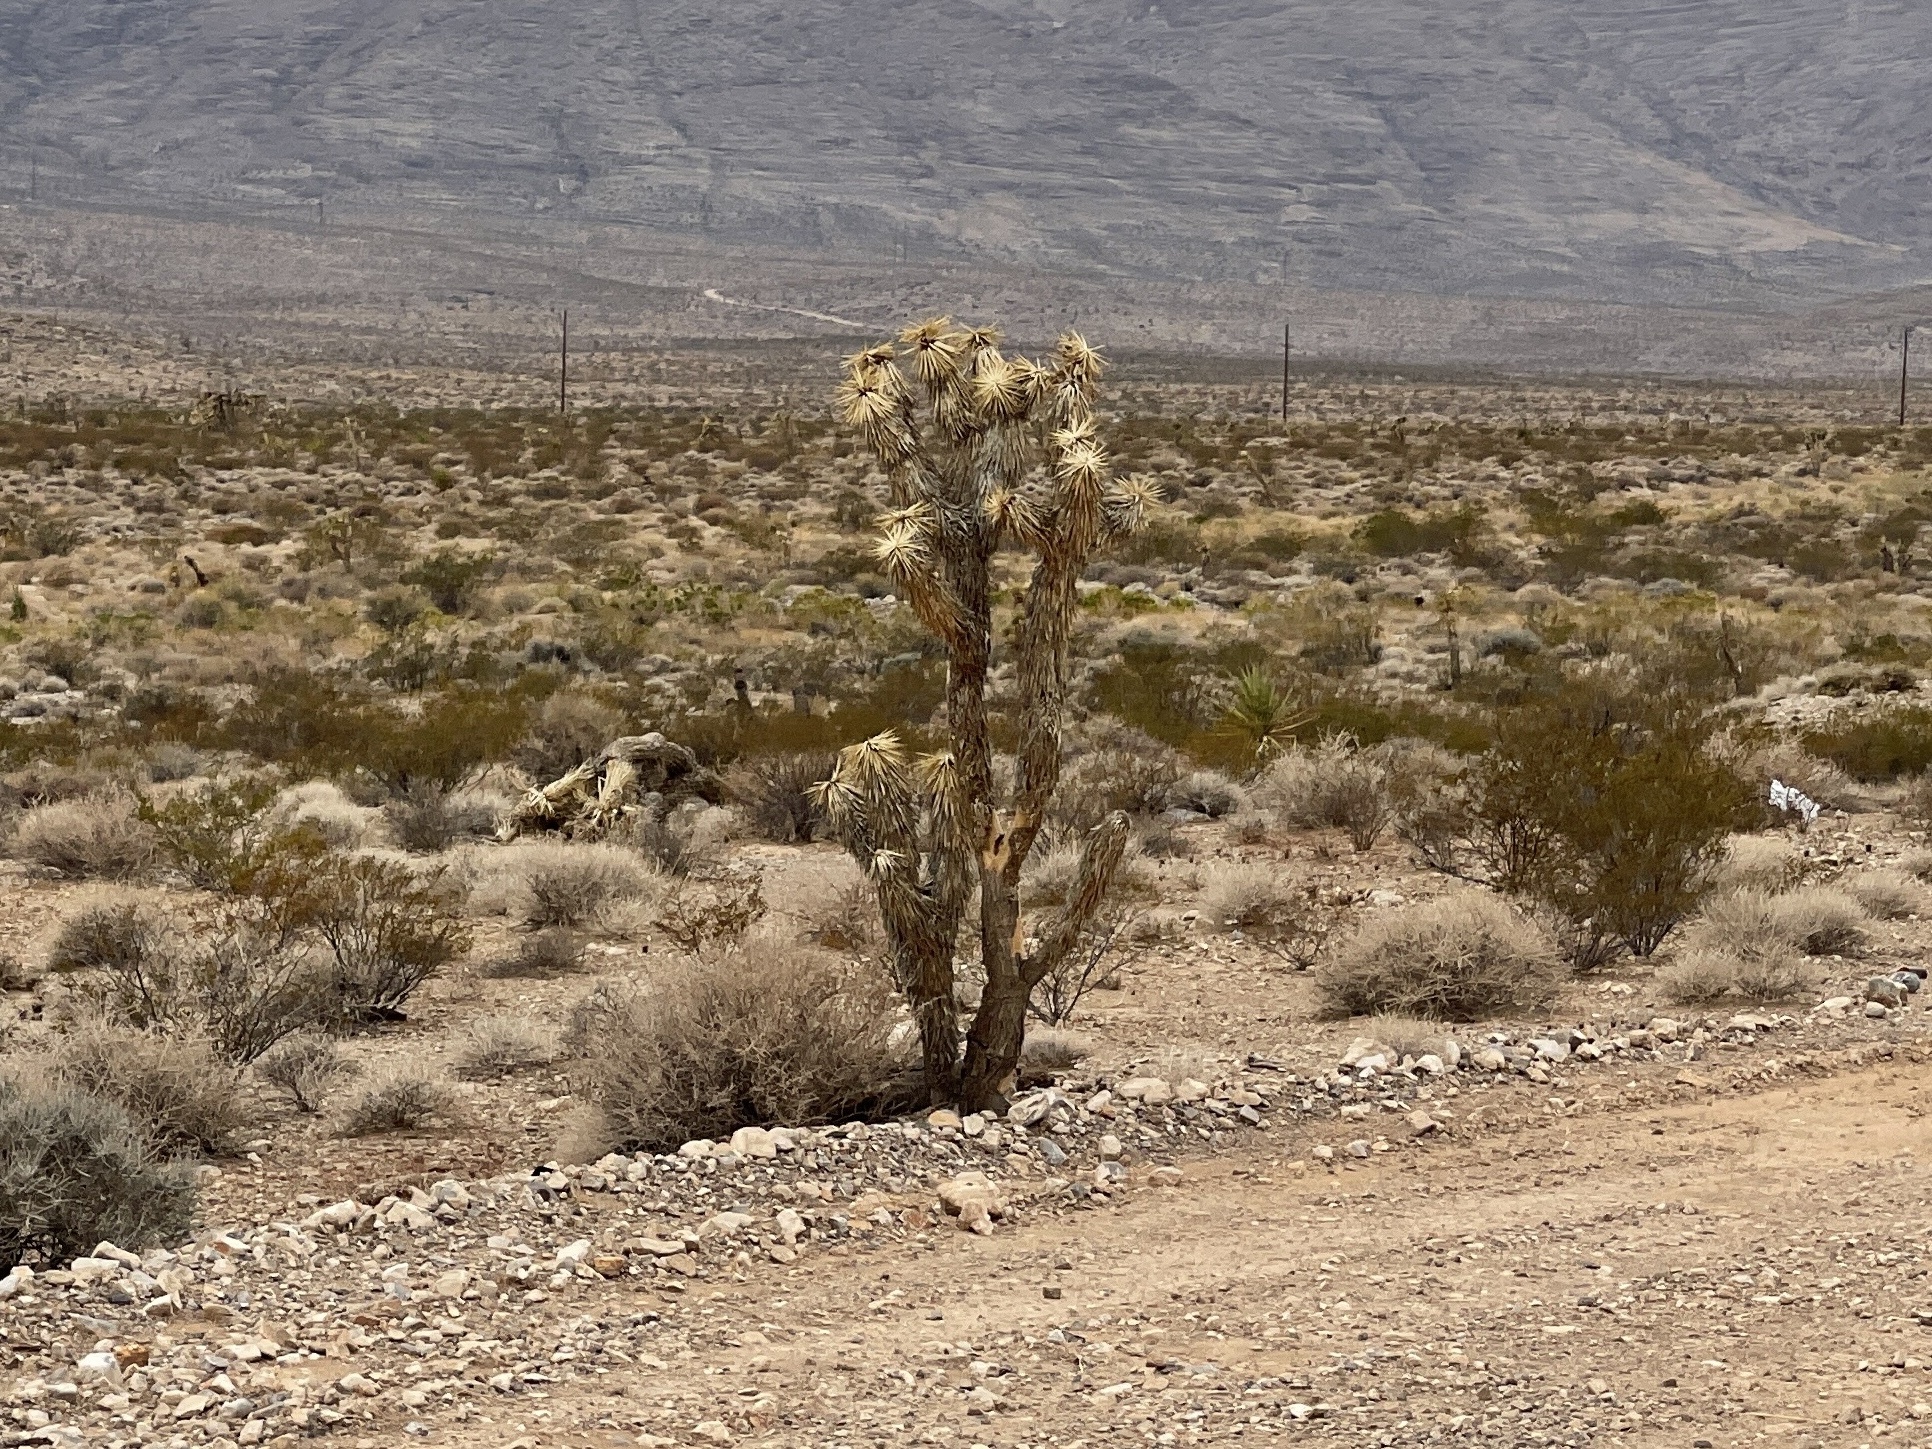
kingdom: Plantae
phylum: Tracheophyta
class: Liliopsida
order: Asparagales
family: Asparagaceae
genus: Yucca
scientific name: Yucca brevifolia
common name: Joshua tree
